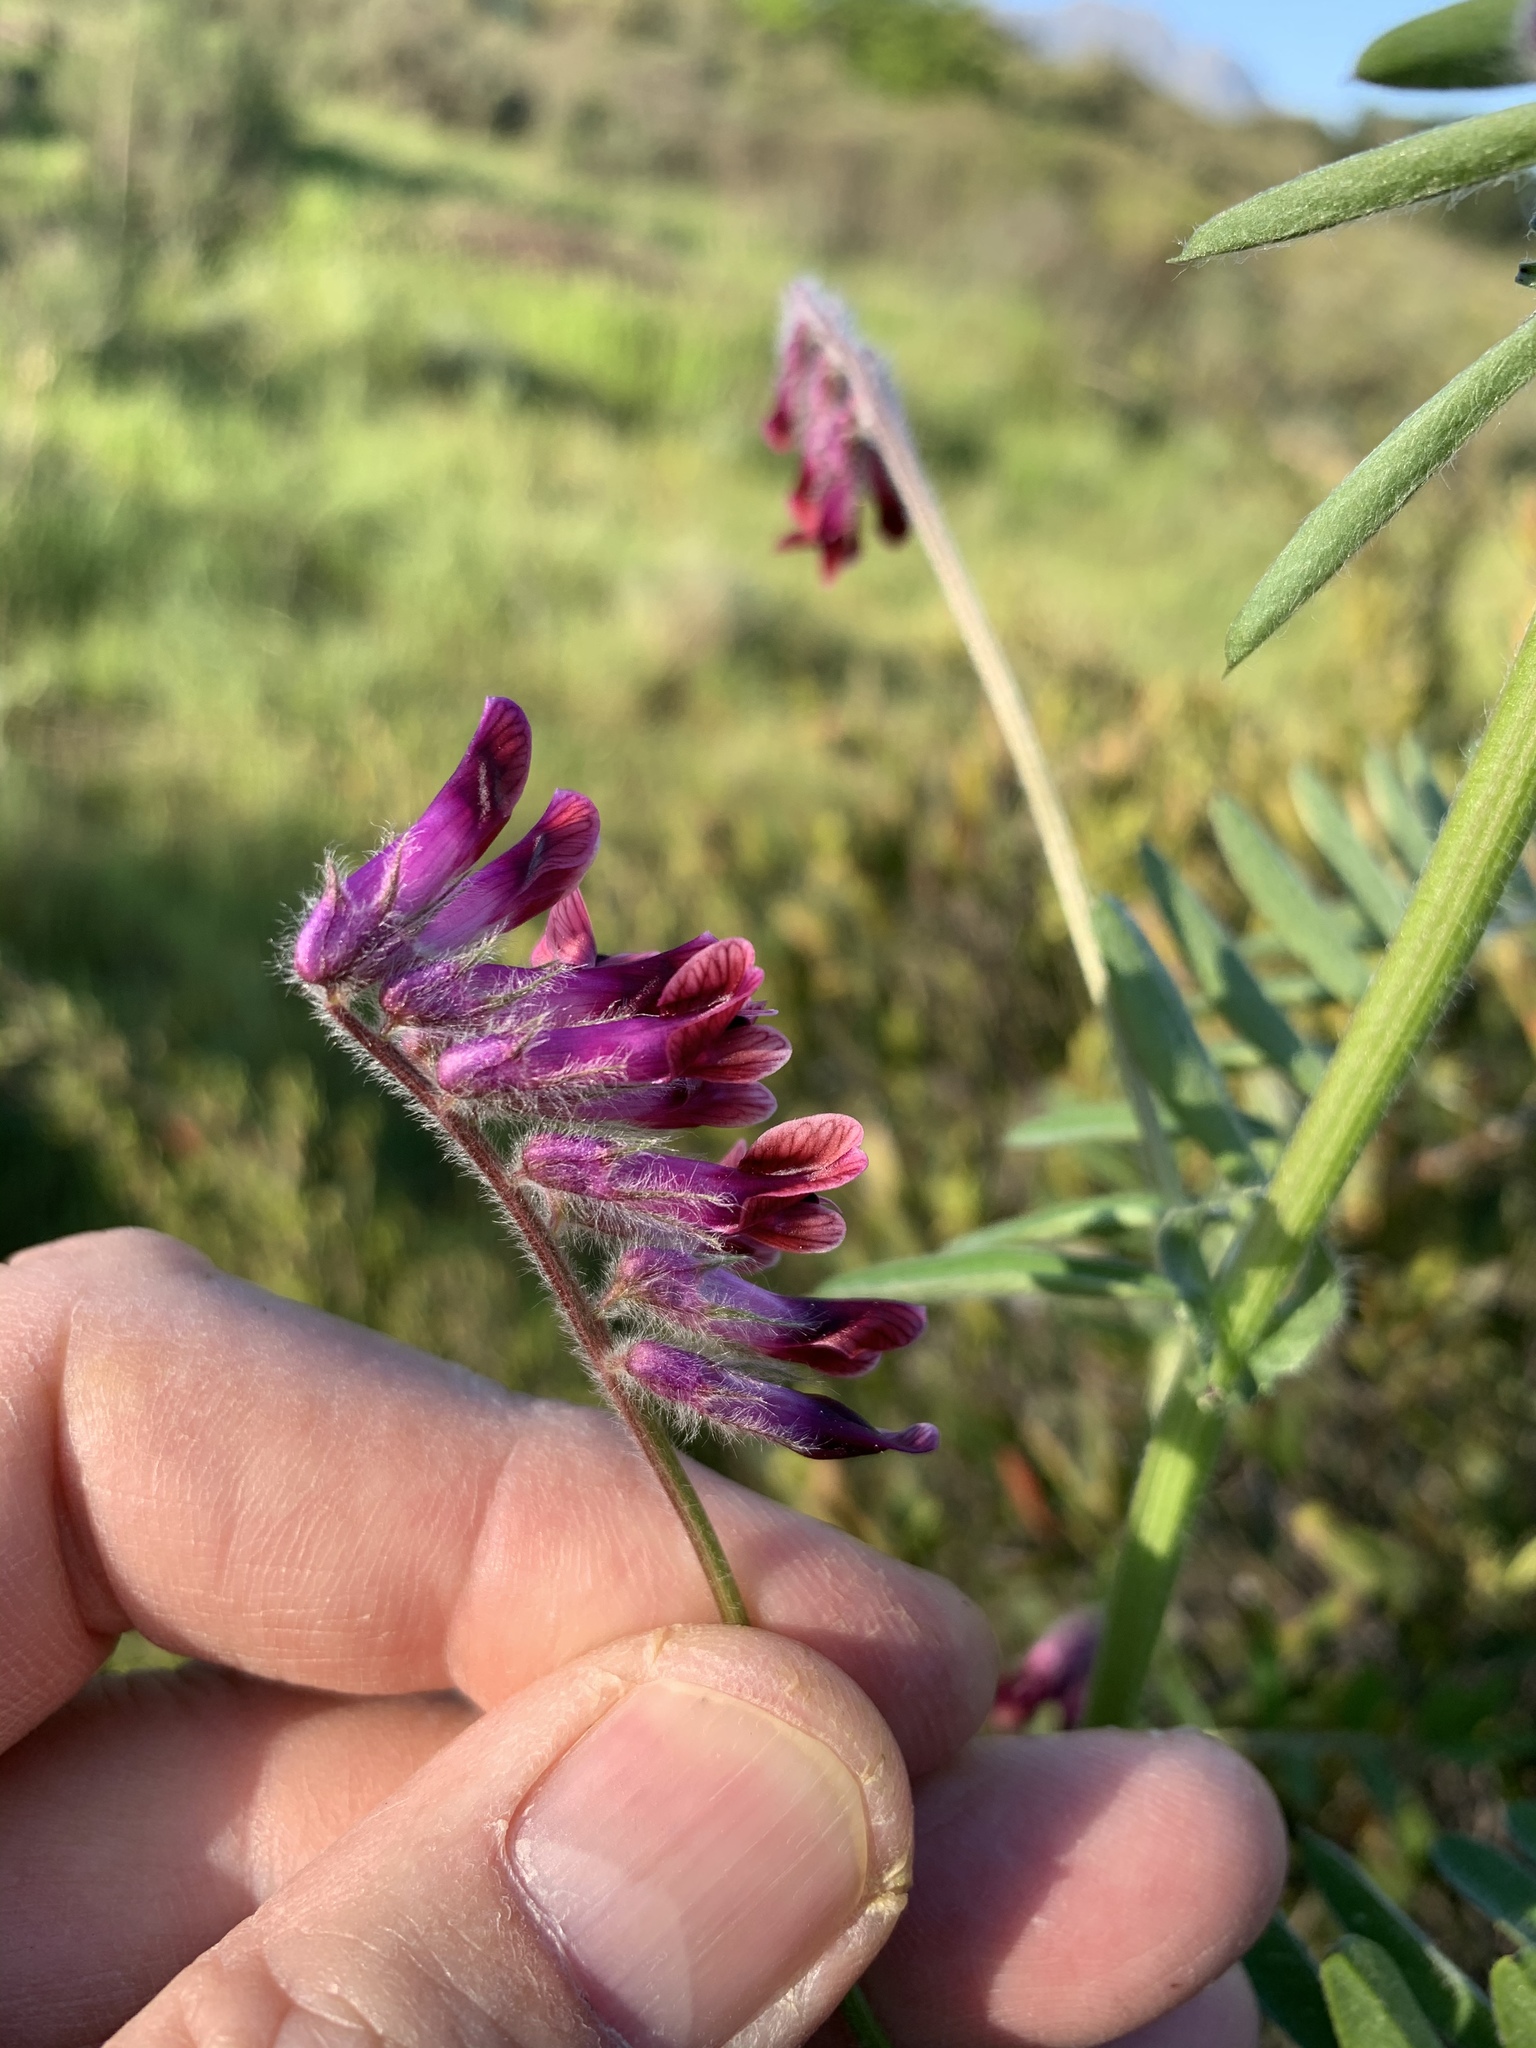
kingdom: Plantae
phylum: Tracheophyta
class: Magnoliopsida
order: Fabales
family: Fabaceae
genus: Vicia
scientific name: Vicia benghalensis
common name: Purple vetch
